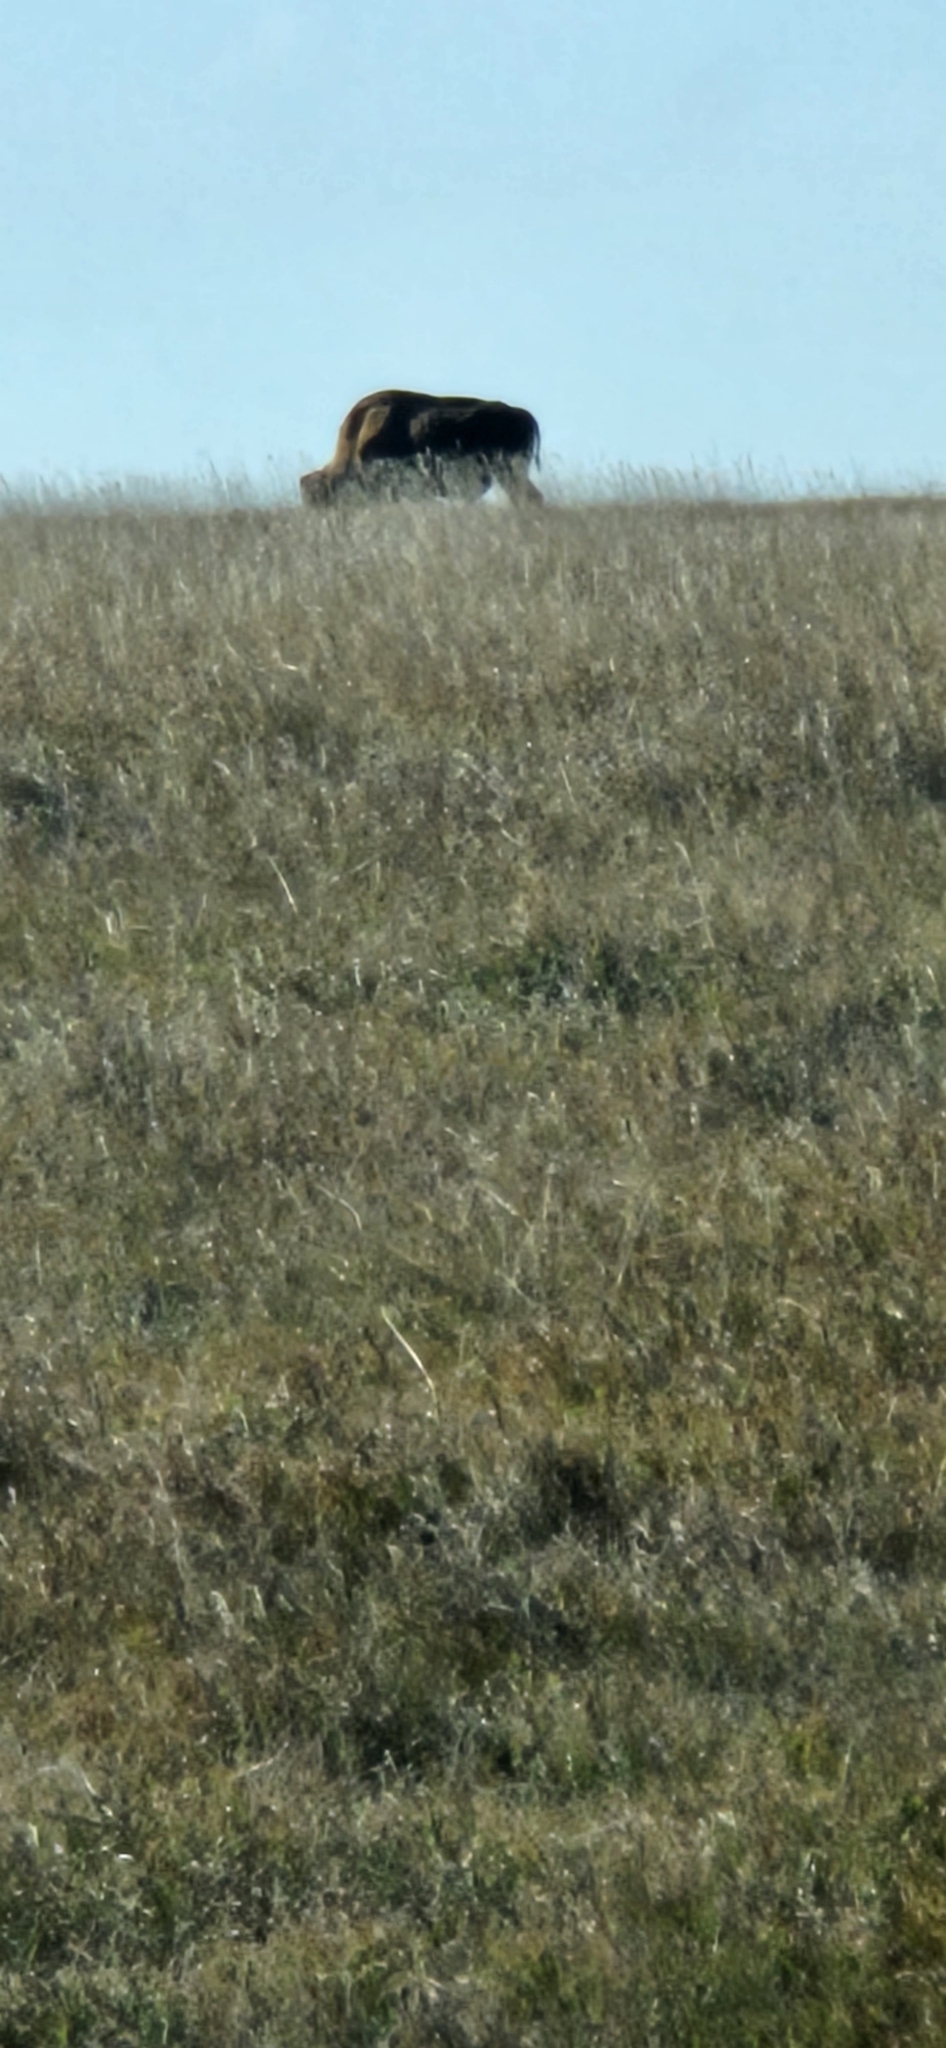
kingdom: Animalia
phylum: Chordata
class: Mammalia
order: Artiodactyla
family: Bovidae
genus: Bison
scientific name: Bison bison
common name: American bison
